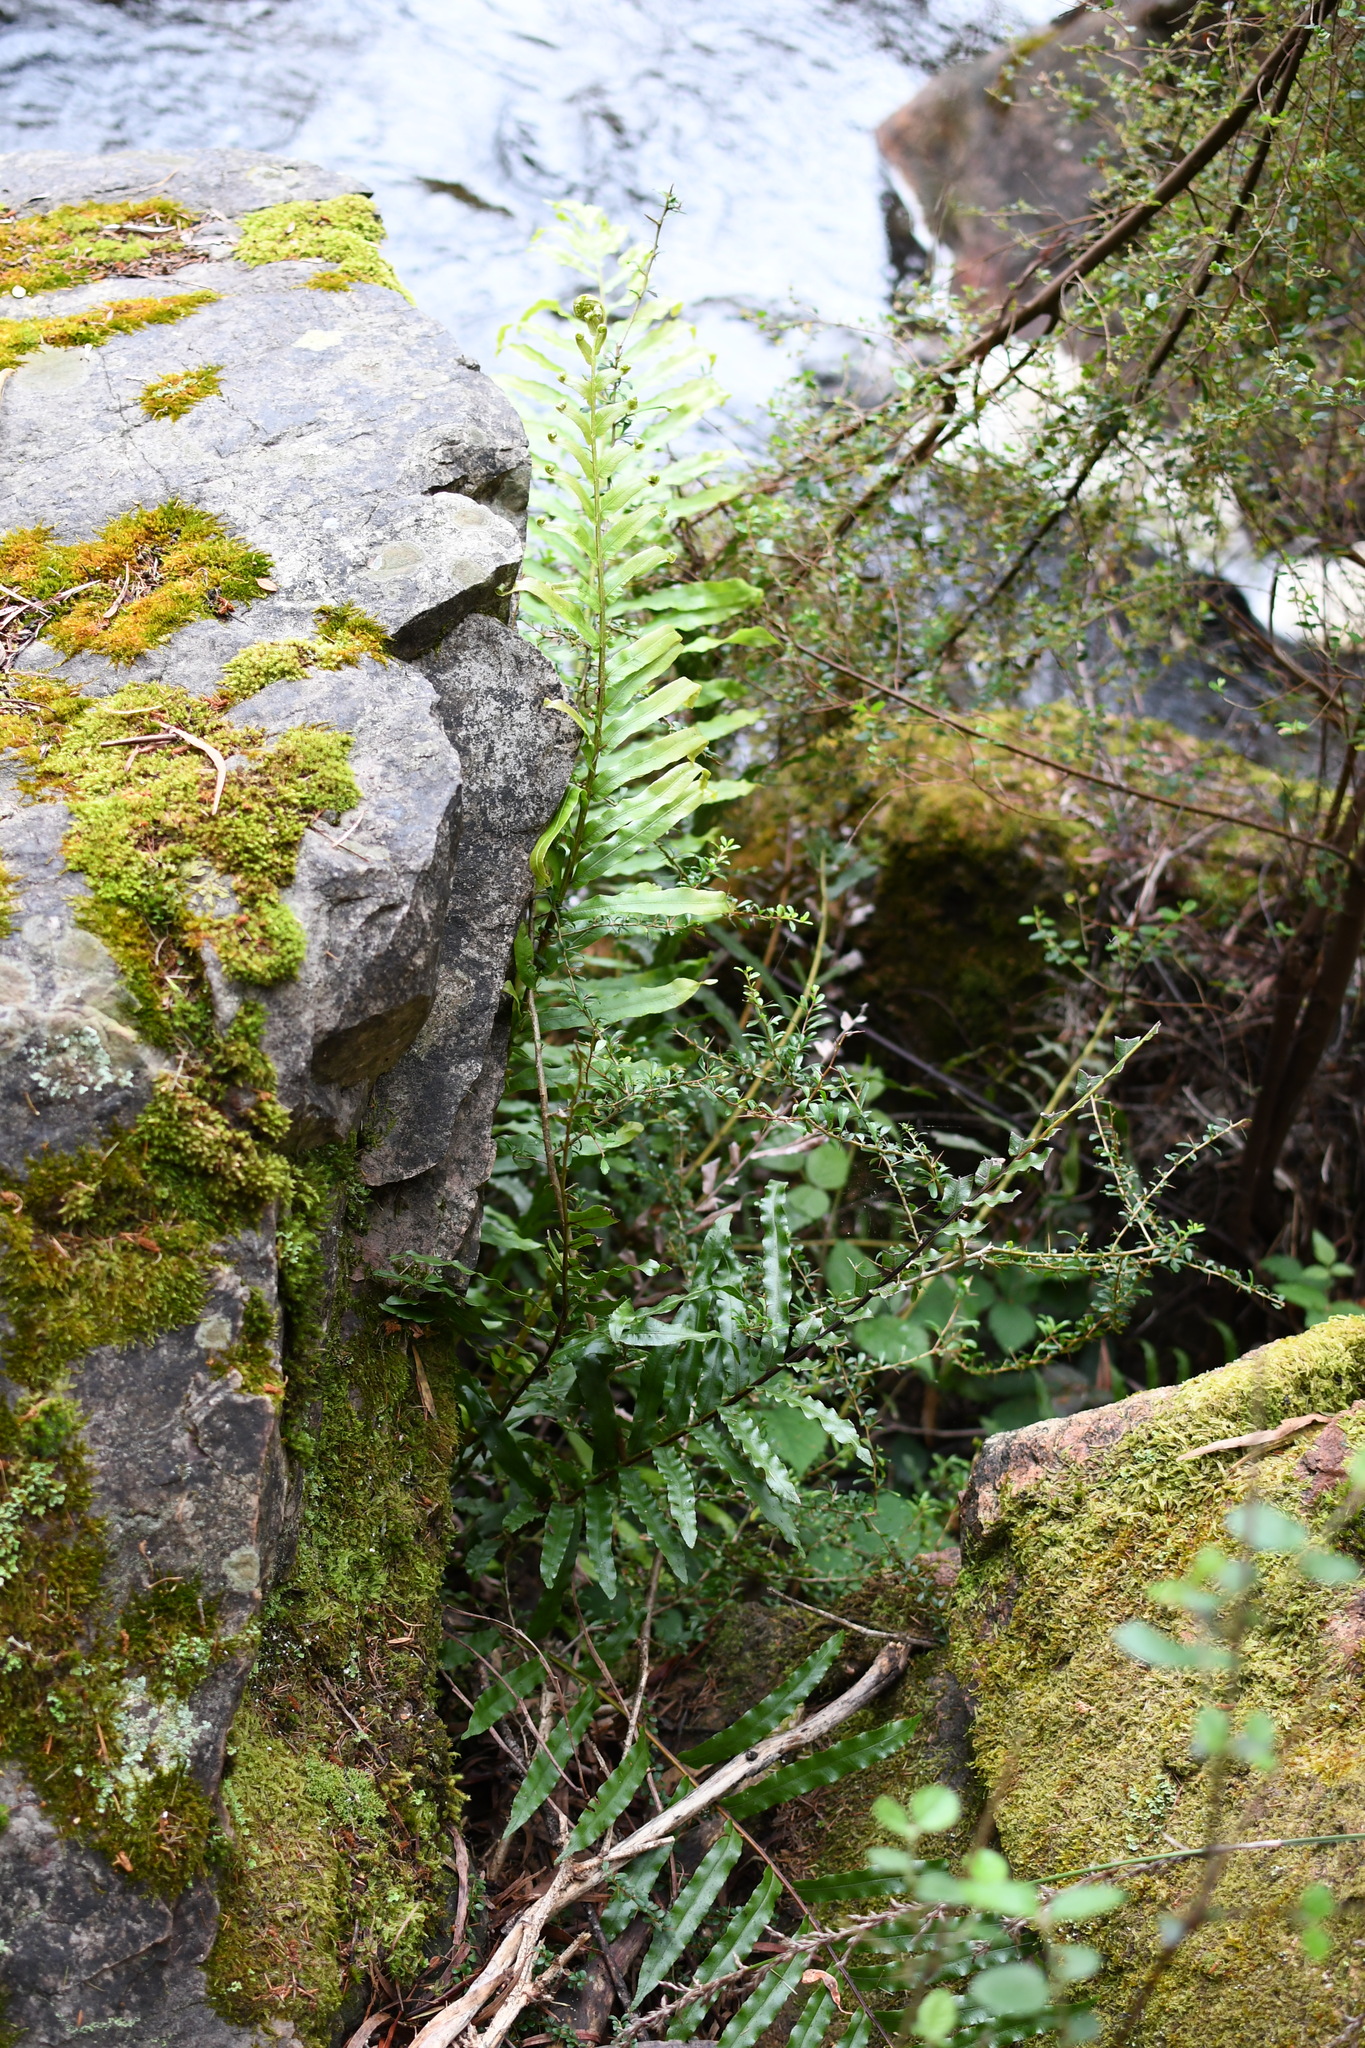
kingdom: Plantae
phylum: Tracheophyta
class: Polypodiopsida
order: Polypodiales
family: Blechnaceae
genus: Parablechnum
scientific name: Parablechnum minus
